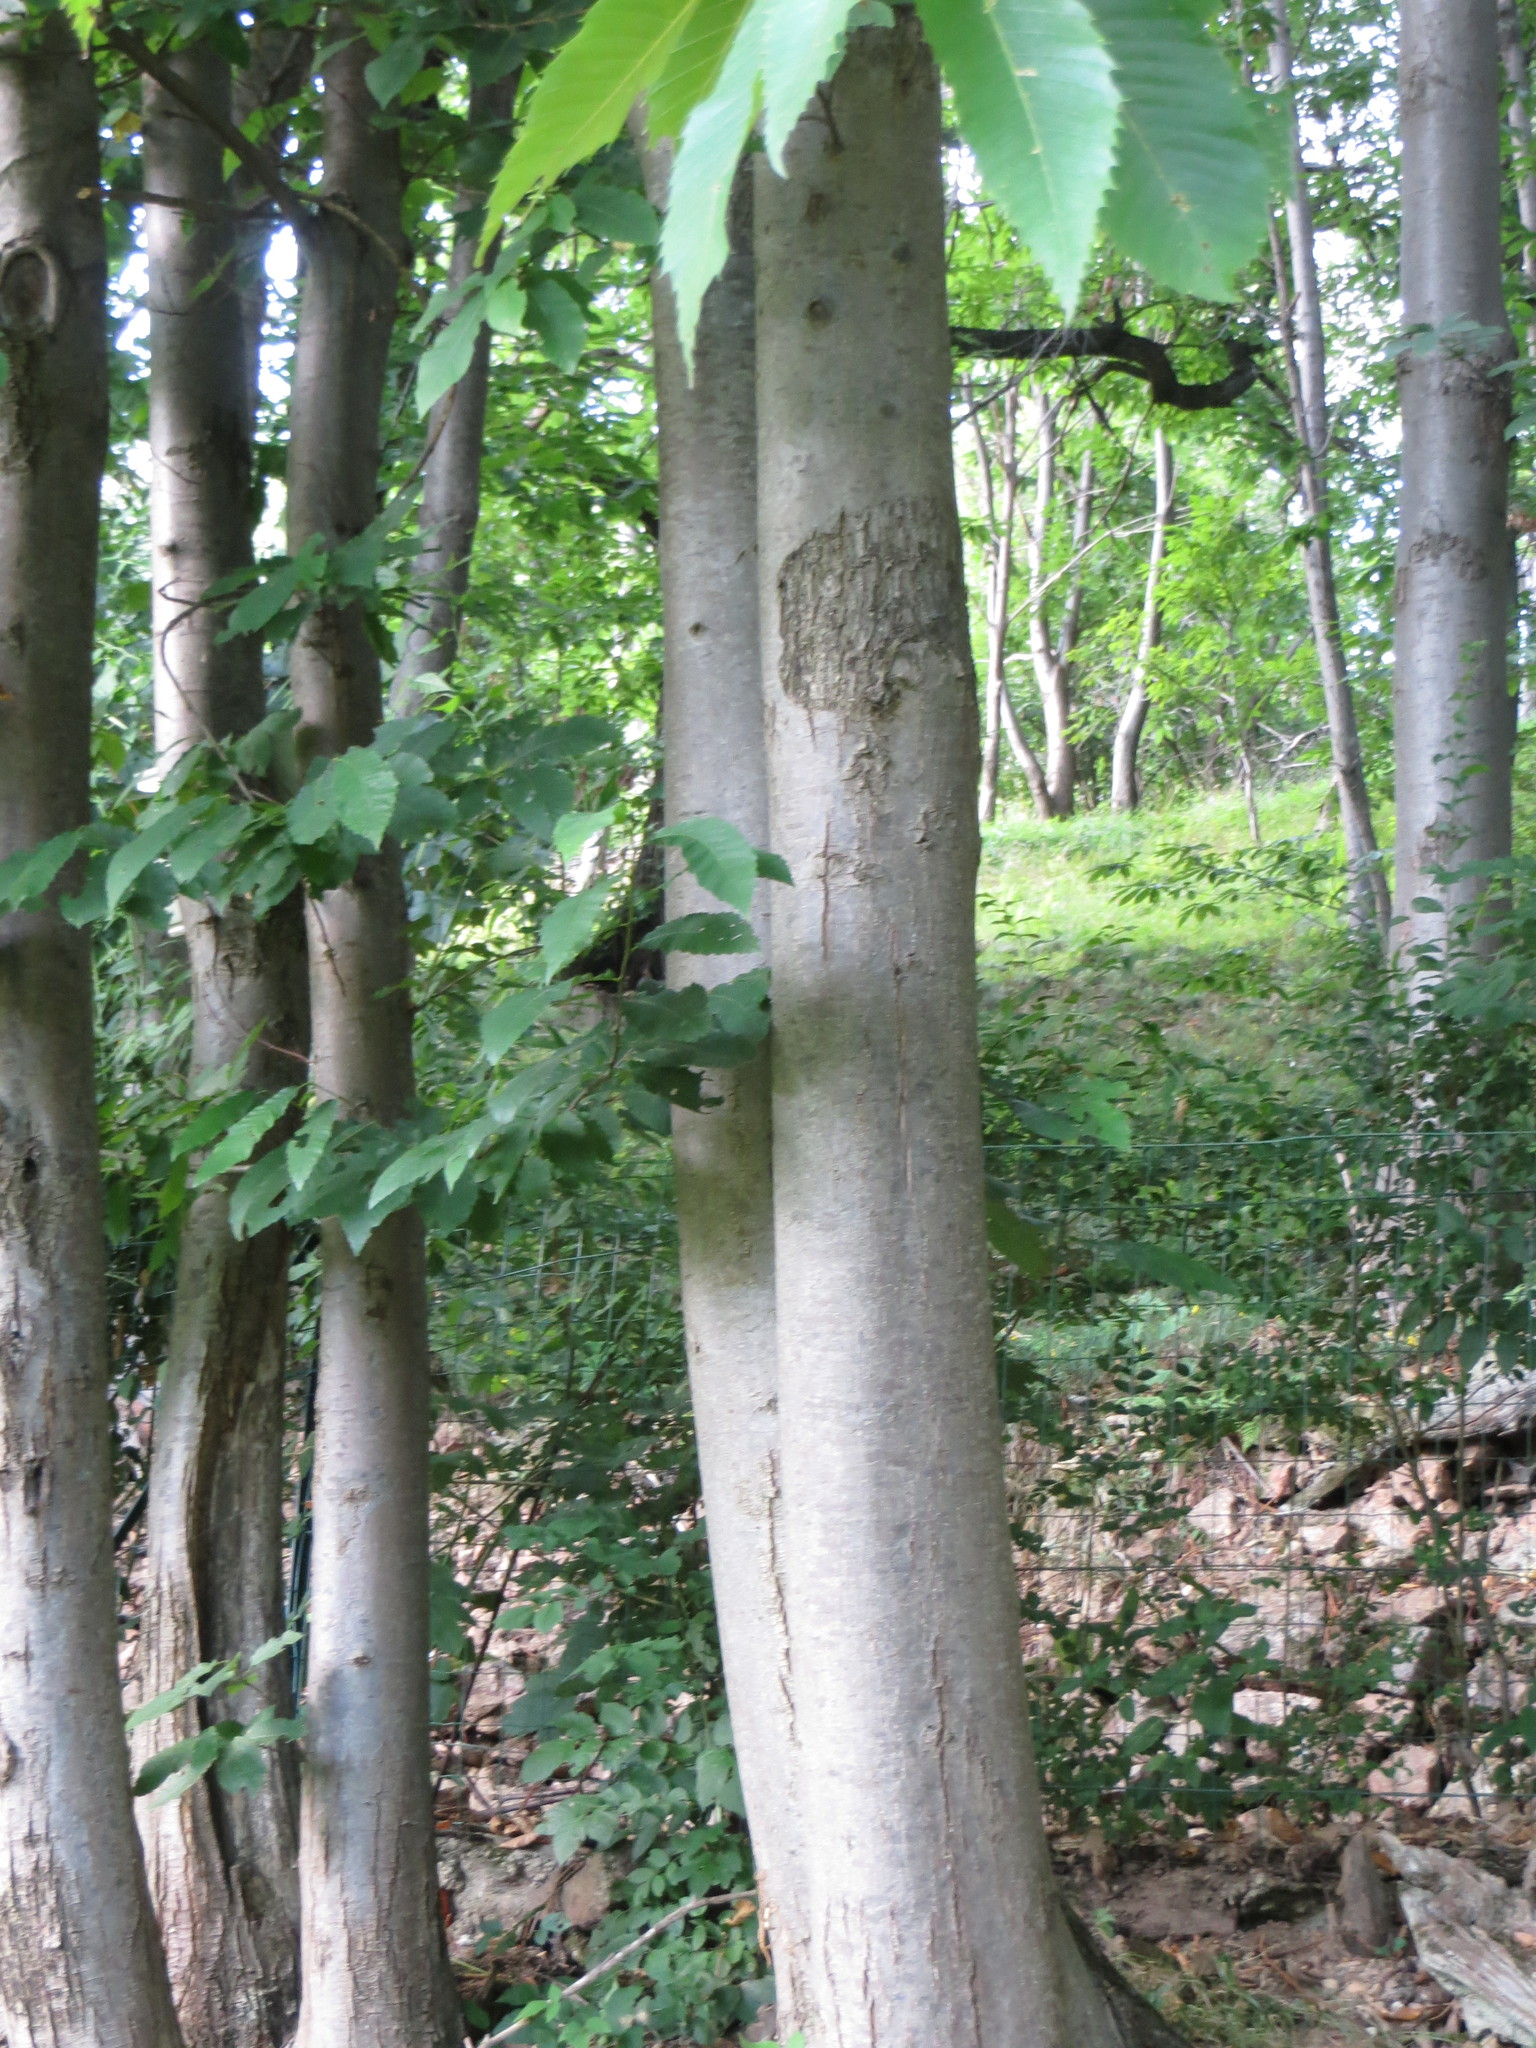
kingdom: Plantae
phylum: Tracheophyta
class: Magnoliopsida
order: Fagales
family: Fagaceae
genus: Castanea
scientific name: Castanea sativa
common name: Sweet chestnut
